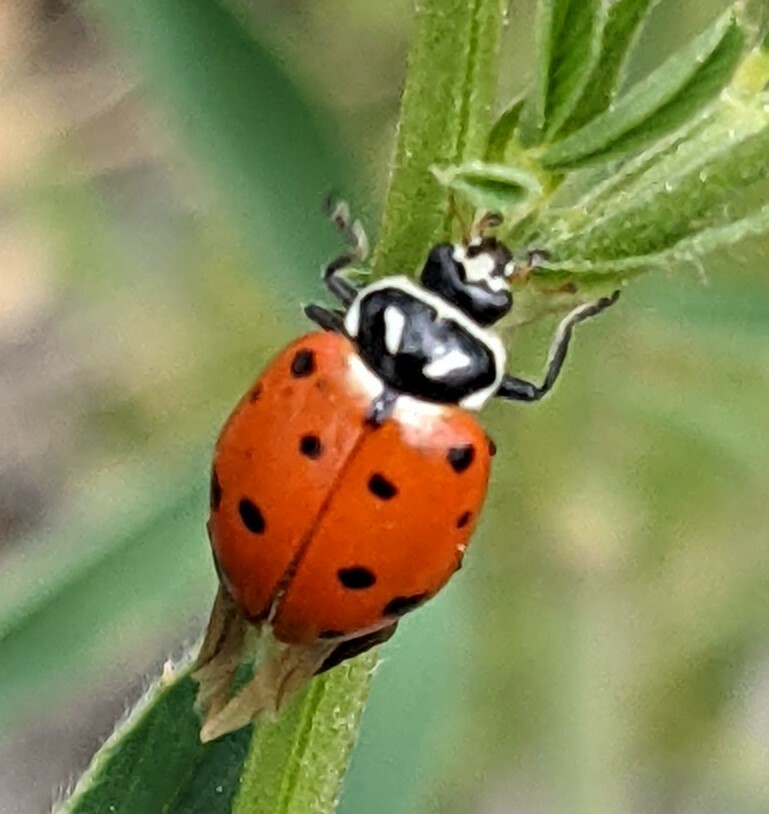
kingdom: Animalia
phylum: Arthropoda
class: Insecta
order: Coleoptera
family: Coccinellidae
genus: Hippodamia
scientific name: Hippodamia convergens
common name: Convergent lady beetle
